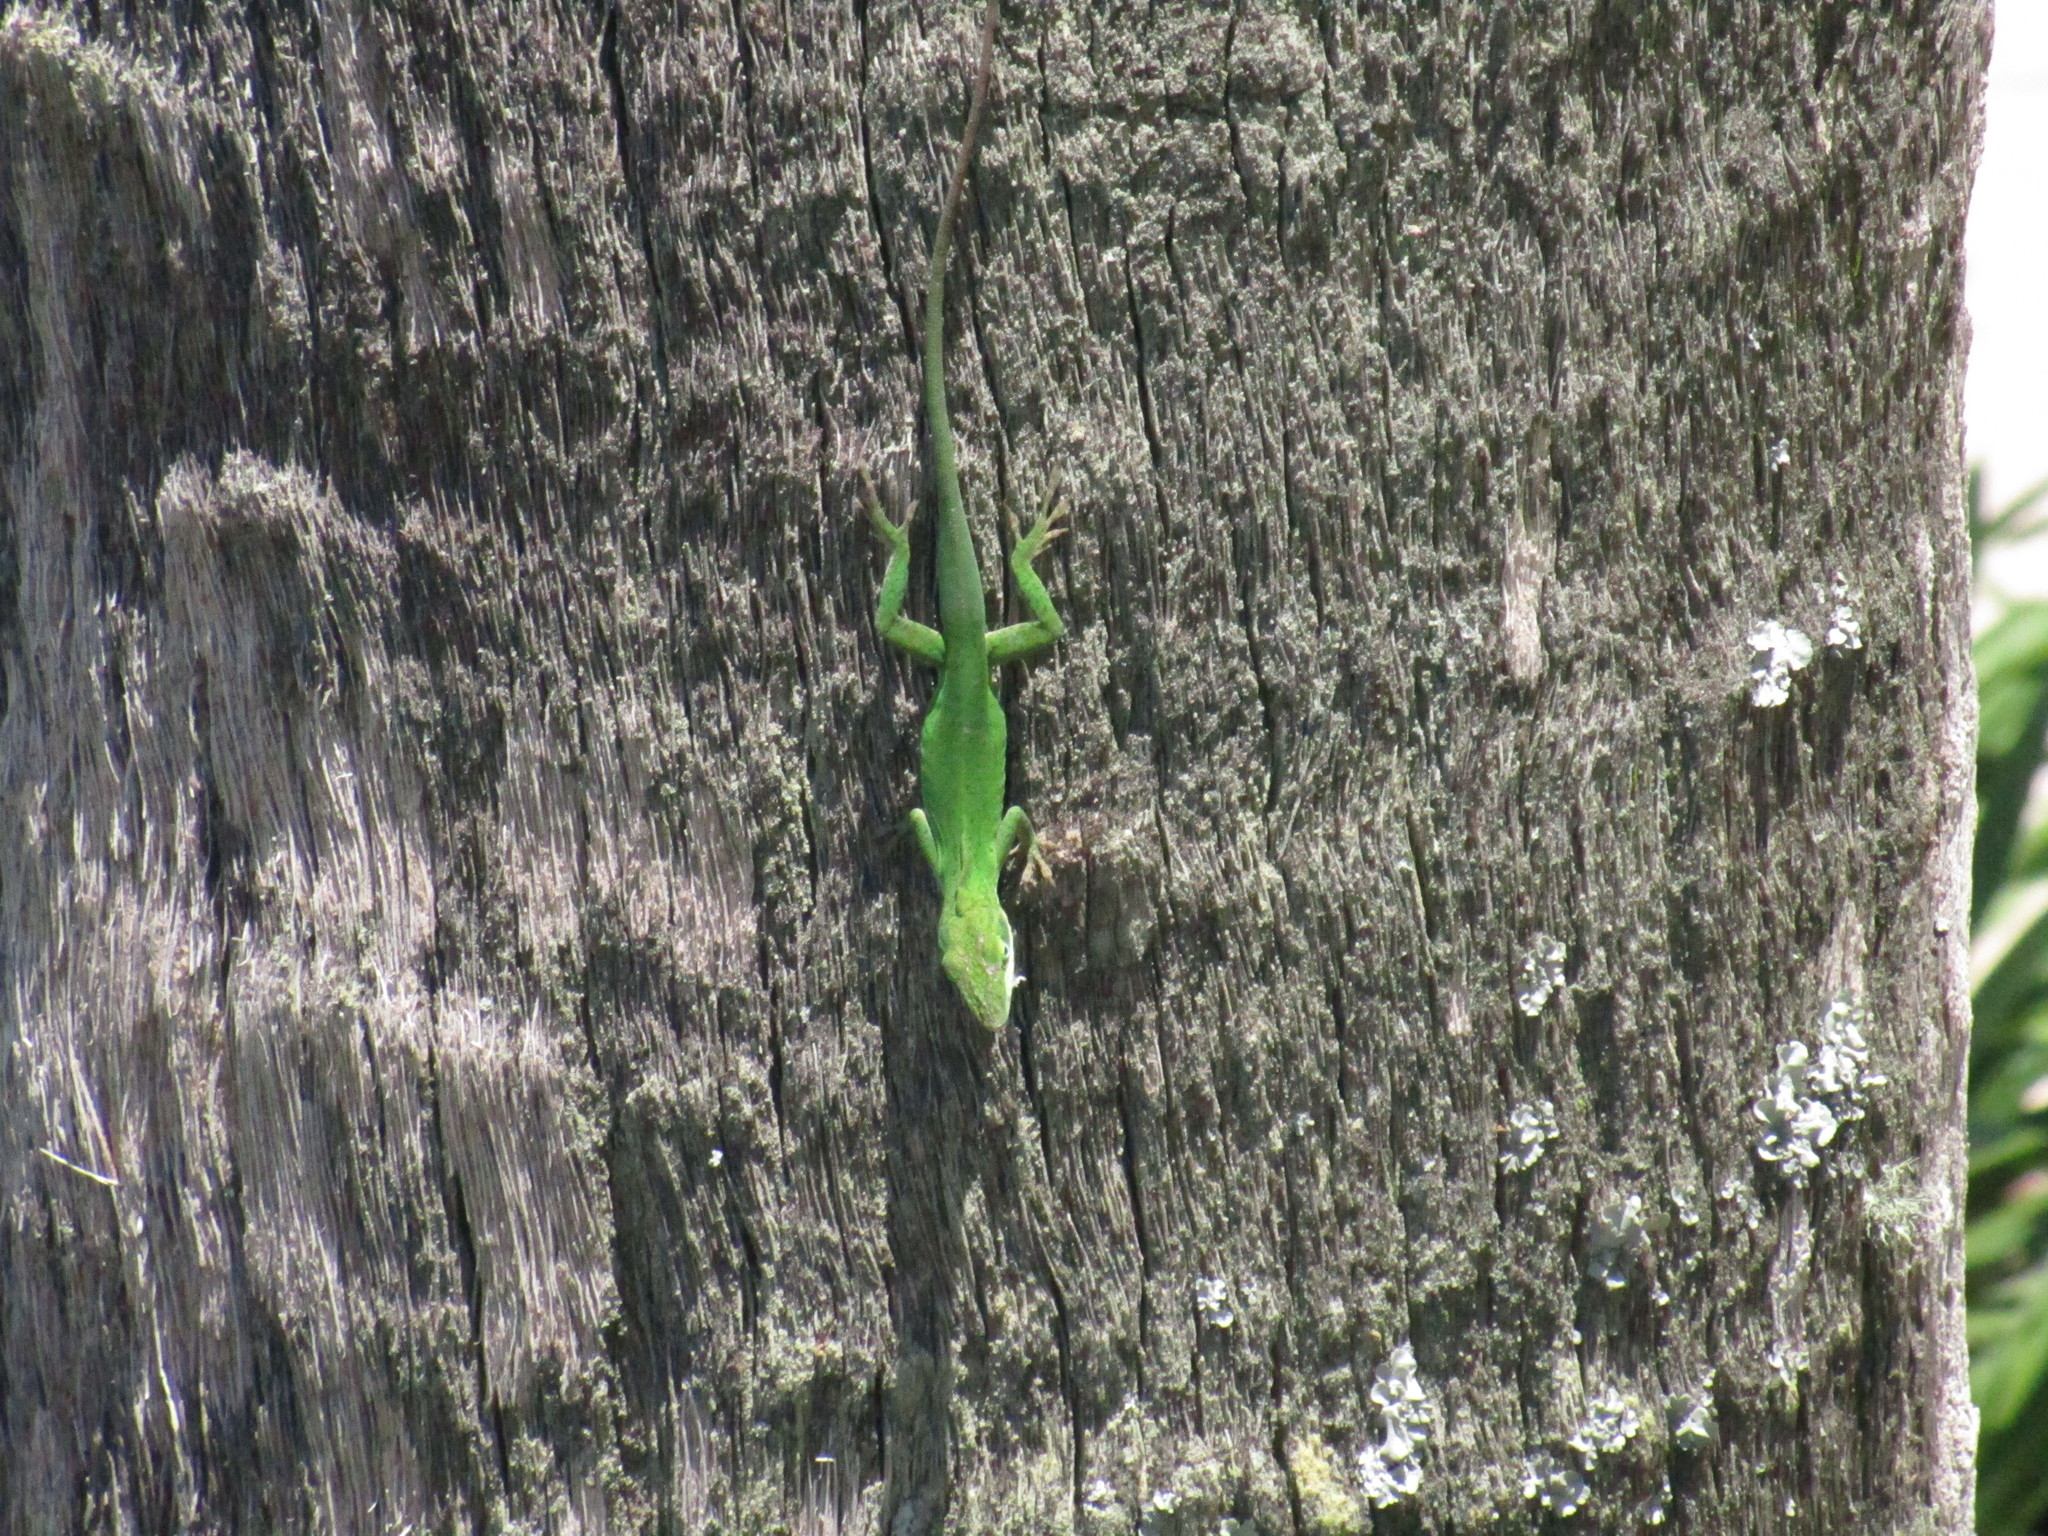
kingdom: Animalia
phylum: Chordata
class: Squamata
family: Dactyloidae
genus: Anolis
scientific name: Anolis carolinensis
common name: Green anole
